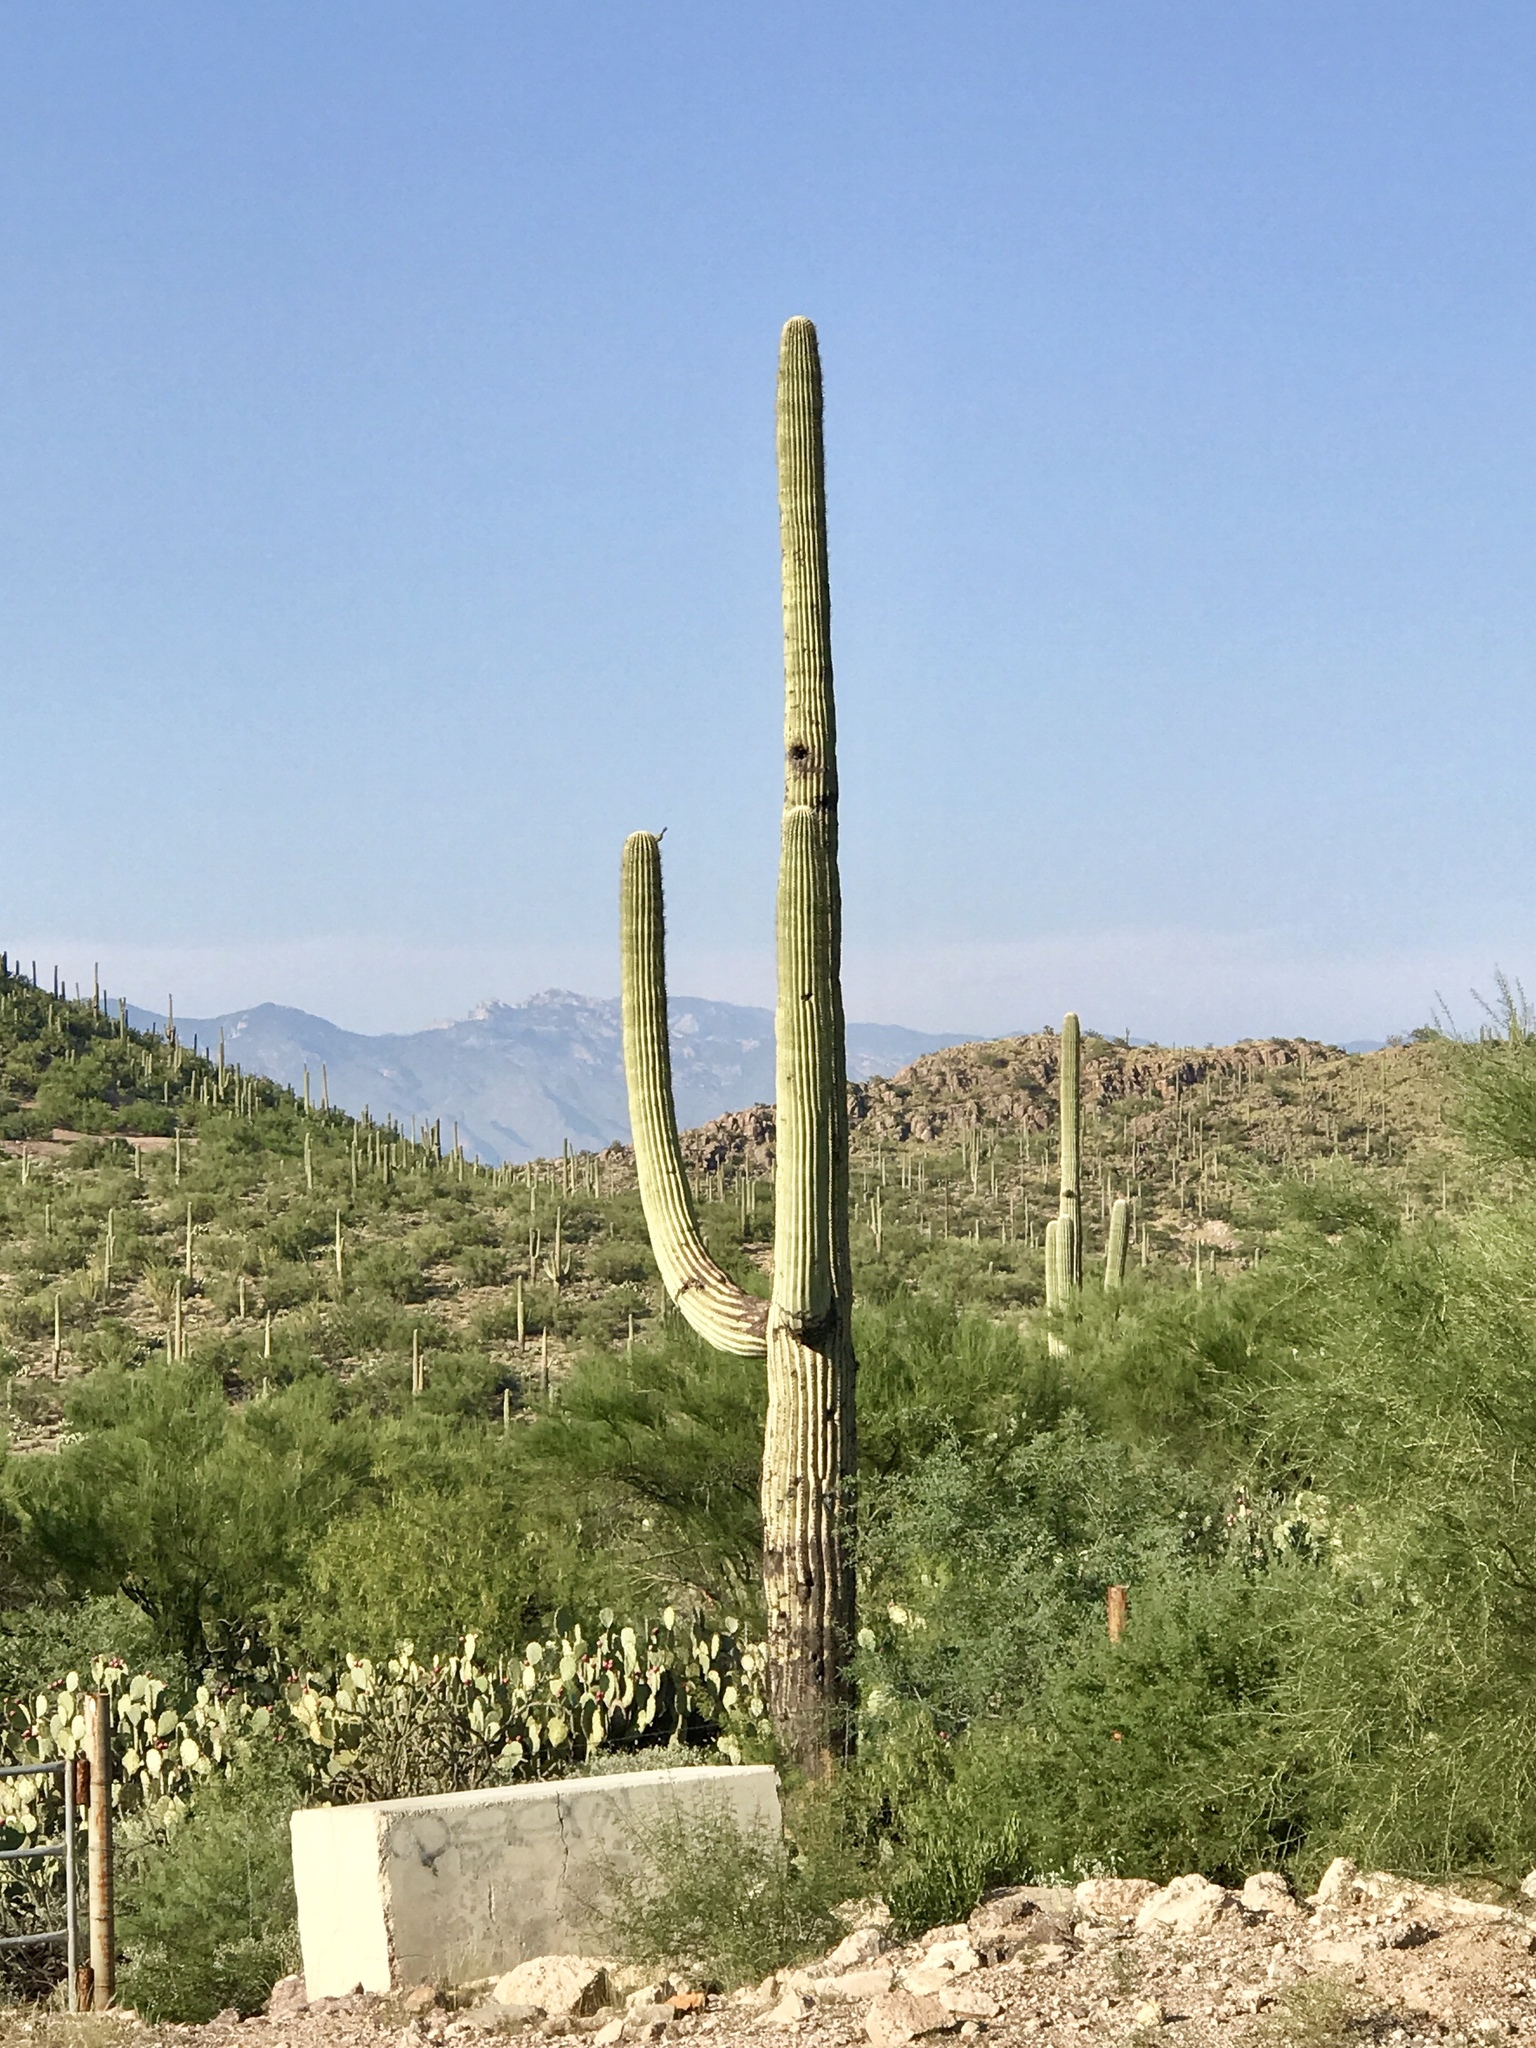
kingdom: Plantae
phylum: Tracheophyta
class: Magnoliopsida
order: Caryophyllales
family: Cactaceae
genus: Carnegiea
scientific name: Carnegiea gigantea
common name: Saguaro
